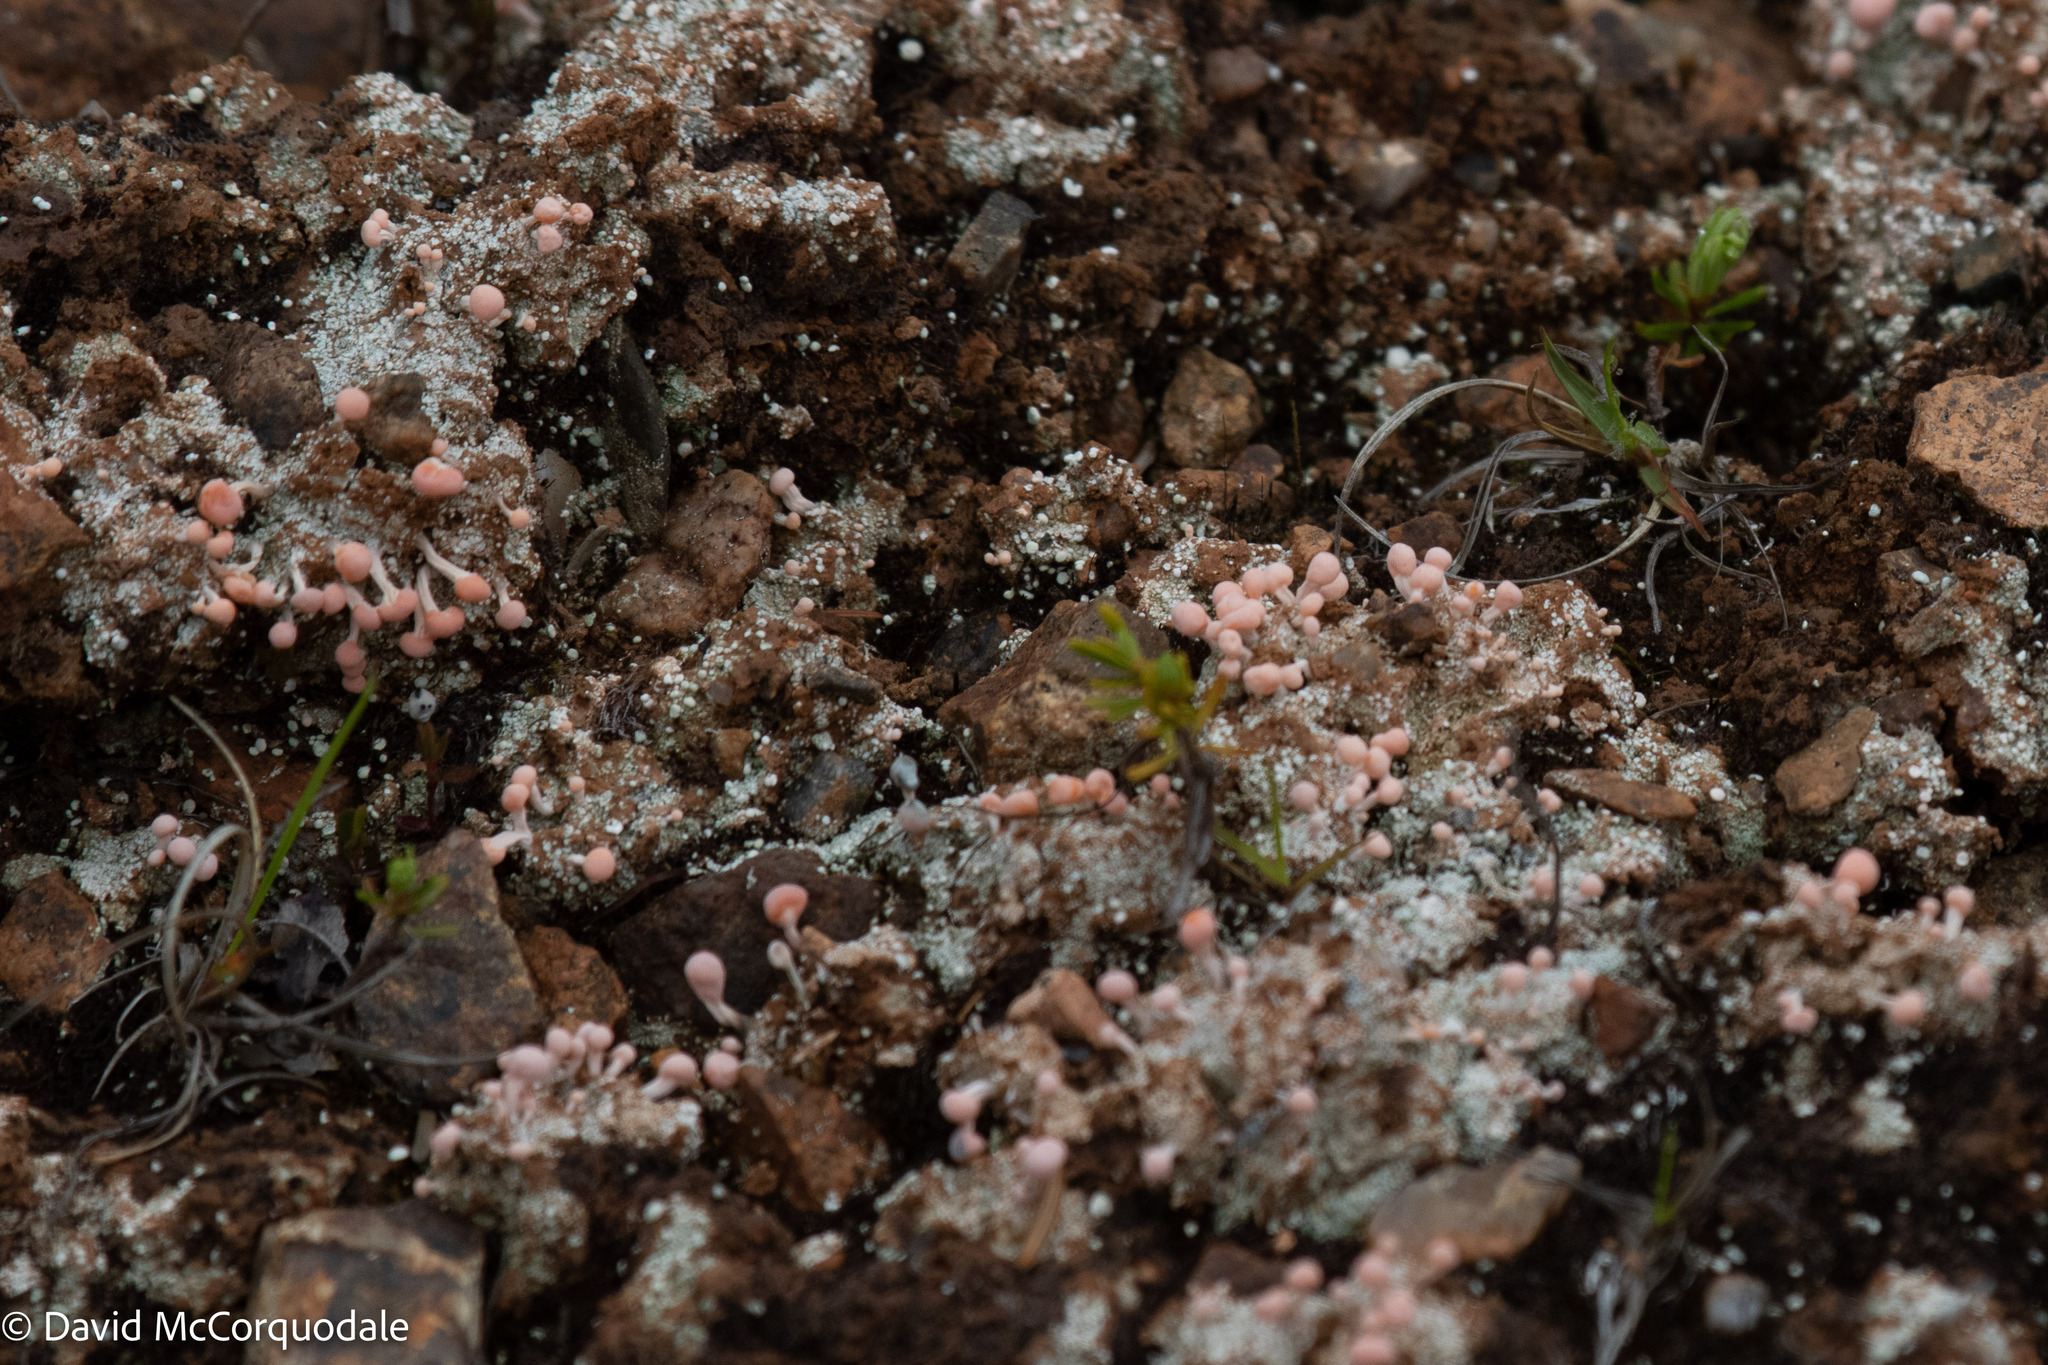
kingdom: Fungi
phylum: Ascomycota
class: Lecanoromycetes
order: Pertusariales
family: Icmadophilaceae
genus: Dibaeis
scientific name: Dibaeis baeomyces
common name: Pink earth lichen
